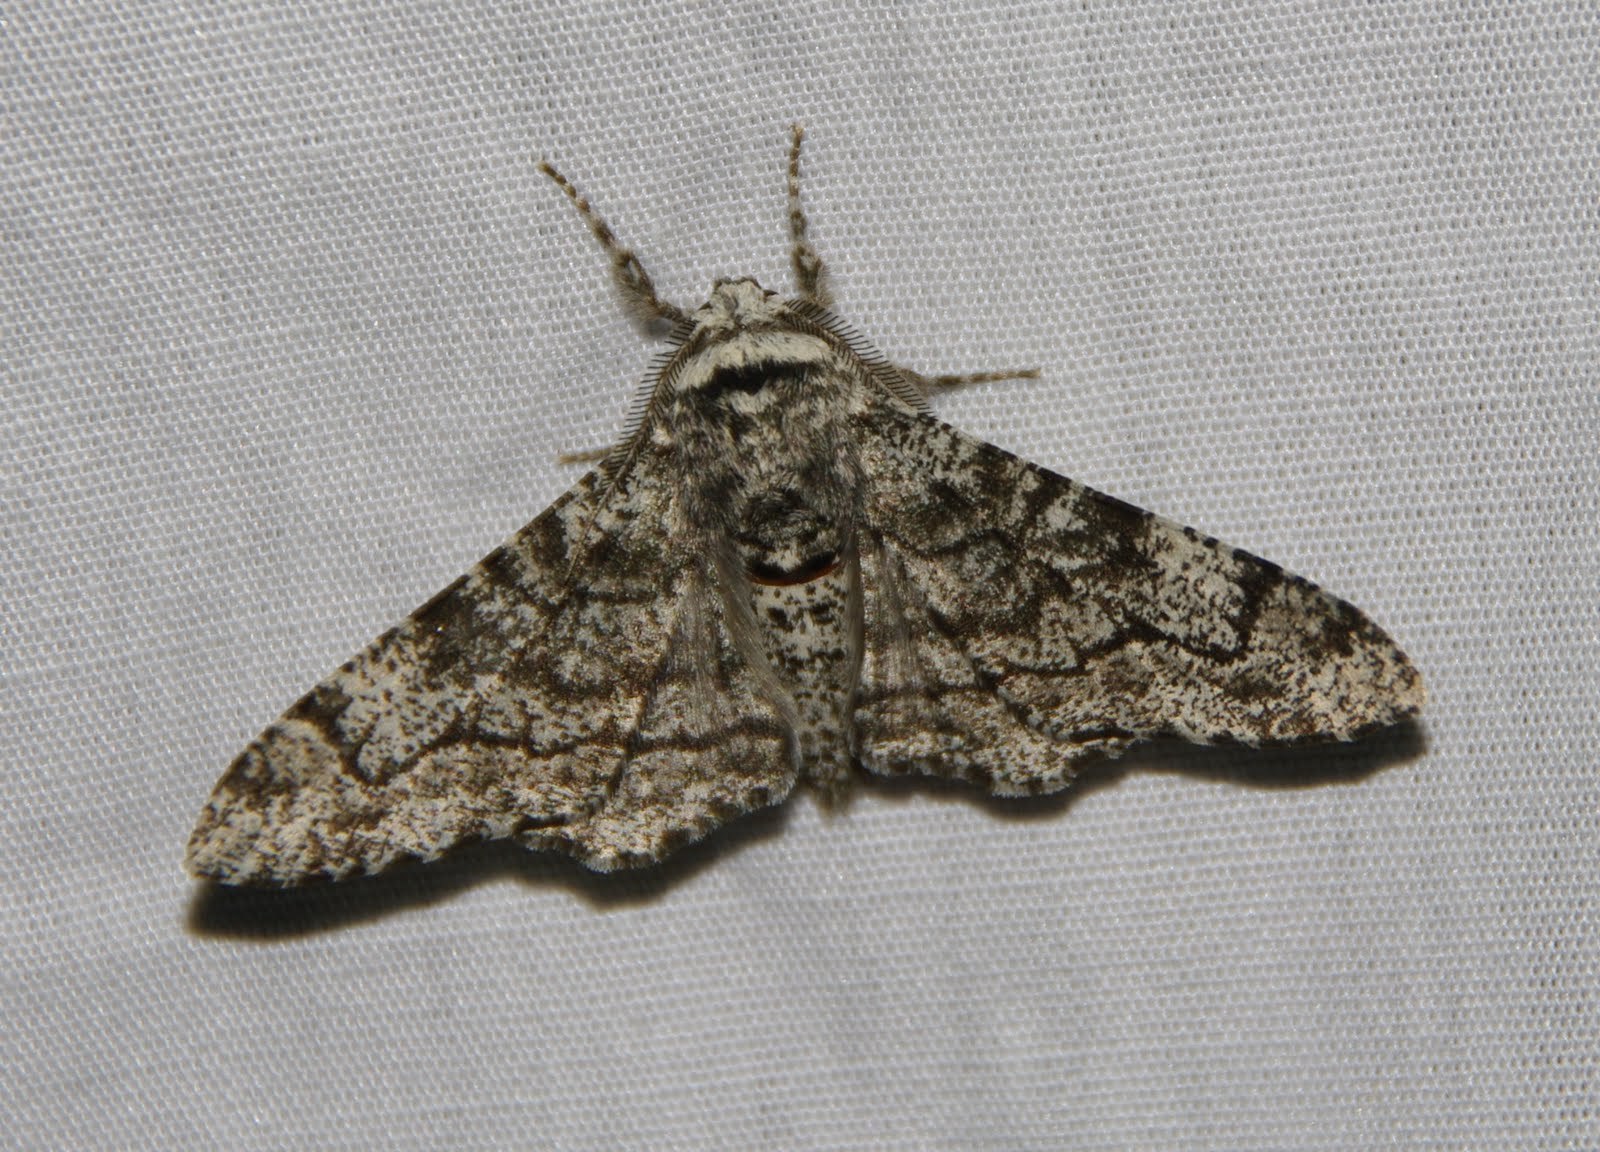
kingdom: Animalia
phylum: Arthropoda
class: Insecta
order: Lepidoptera
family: Geometridae
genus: Biston
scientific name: Biston betularia
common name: Peppered moth
